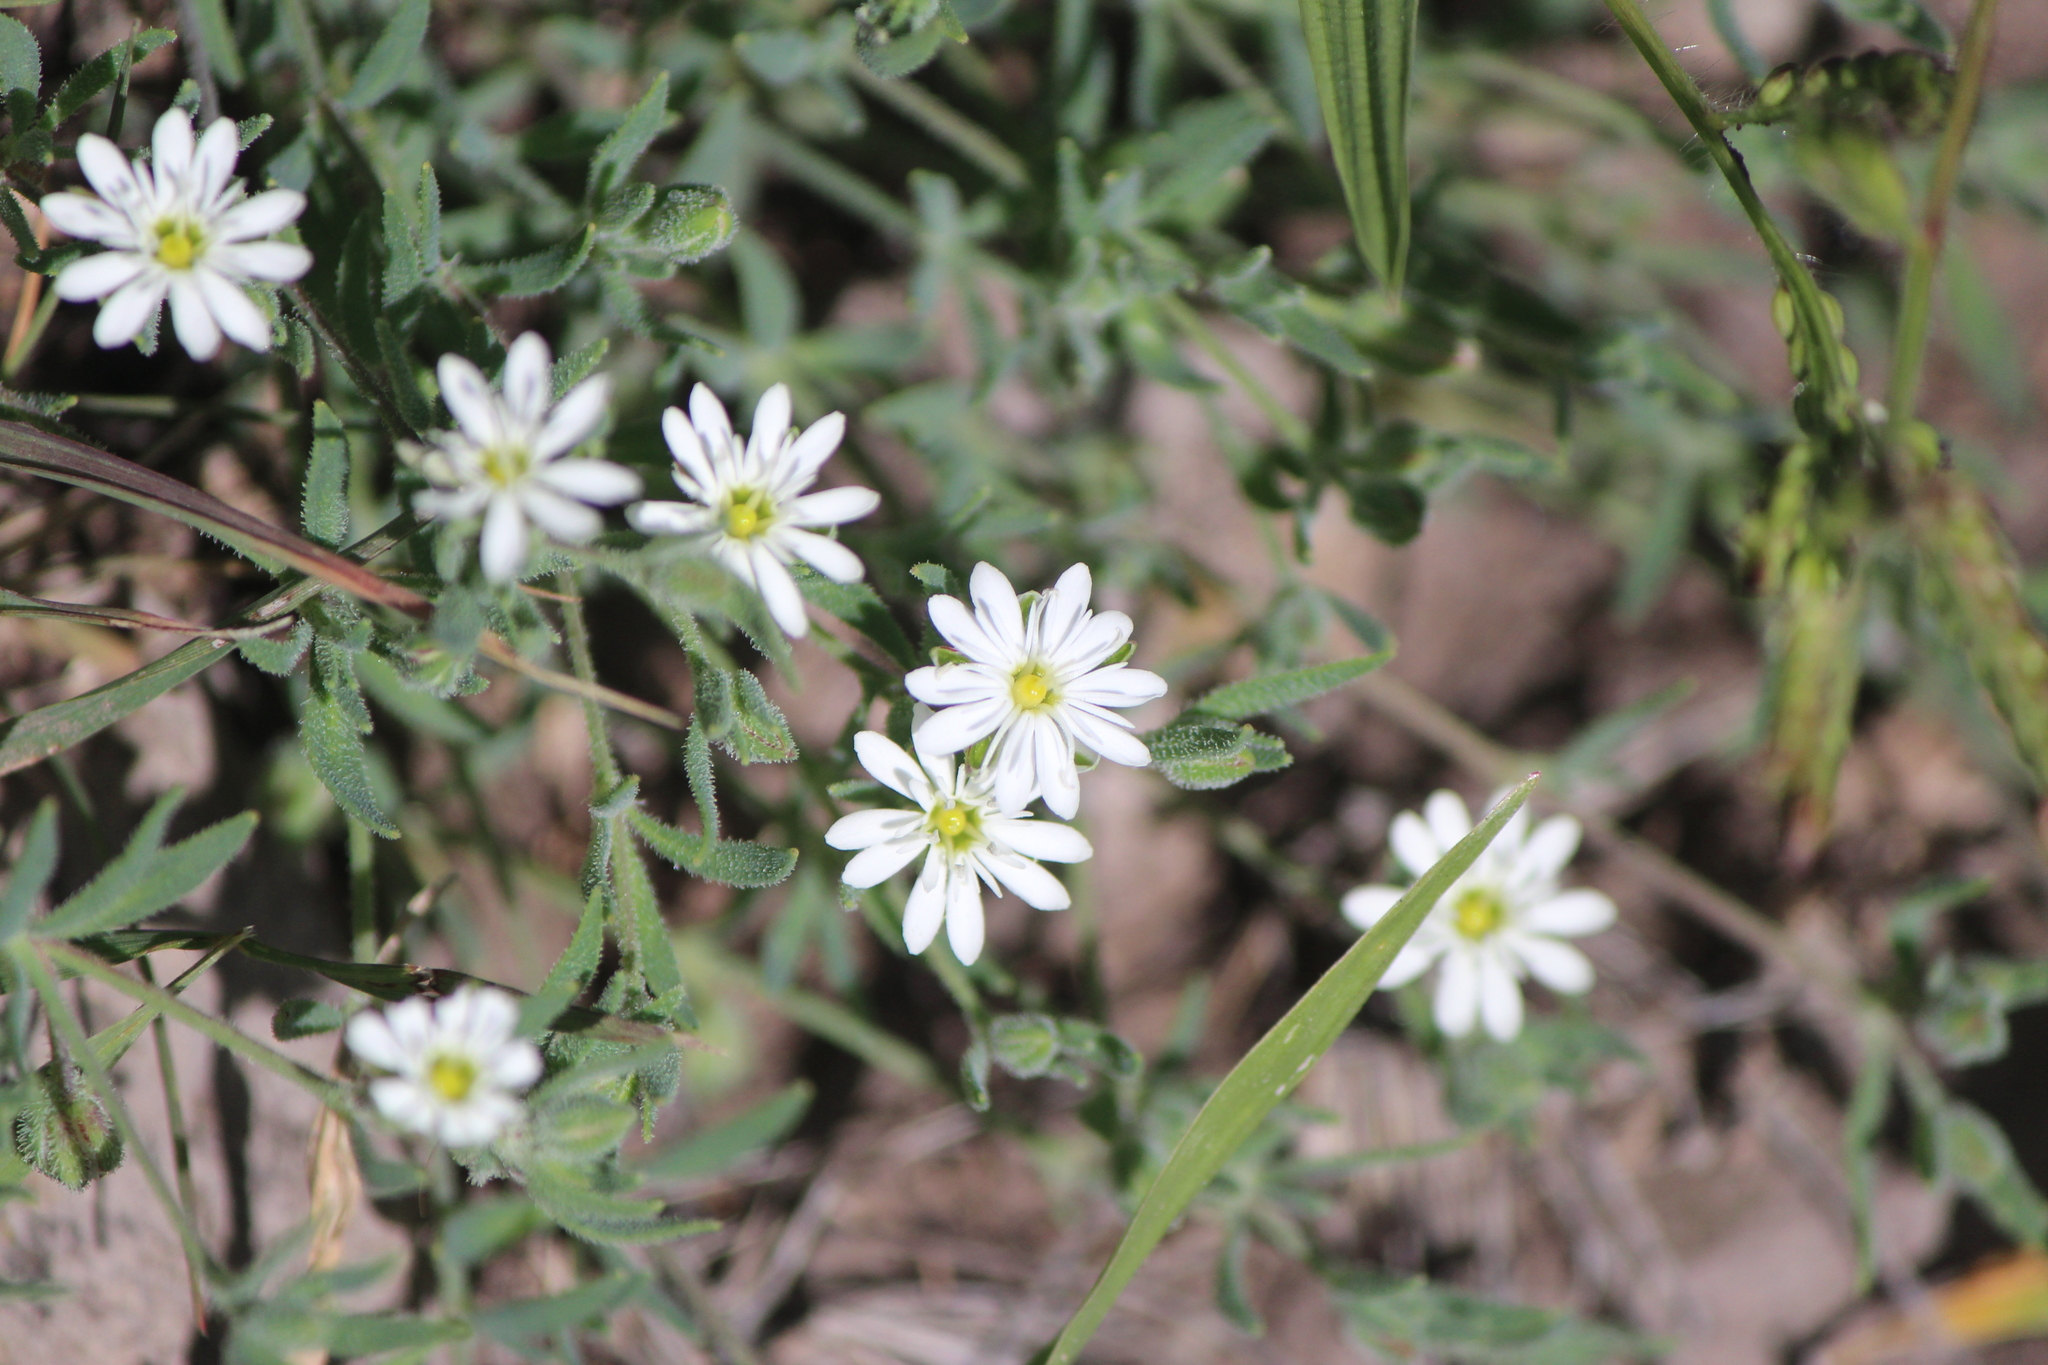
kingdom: Plantae
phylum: Tracheophyta
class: Magnoliopsida
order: Caryophyllales
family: Caryophyllaceae
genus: Drymaria
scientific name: Drymaria arenarioides
